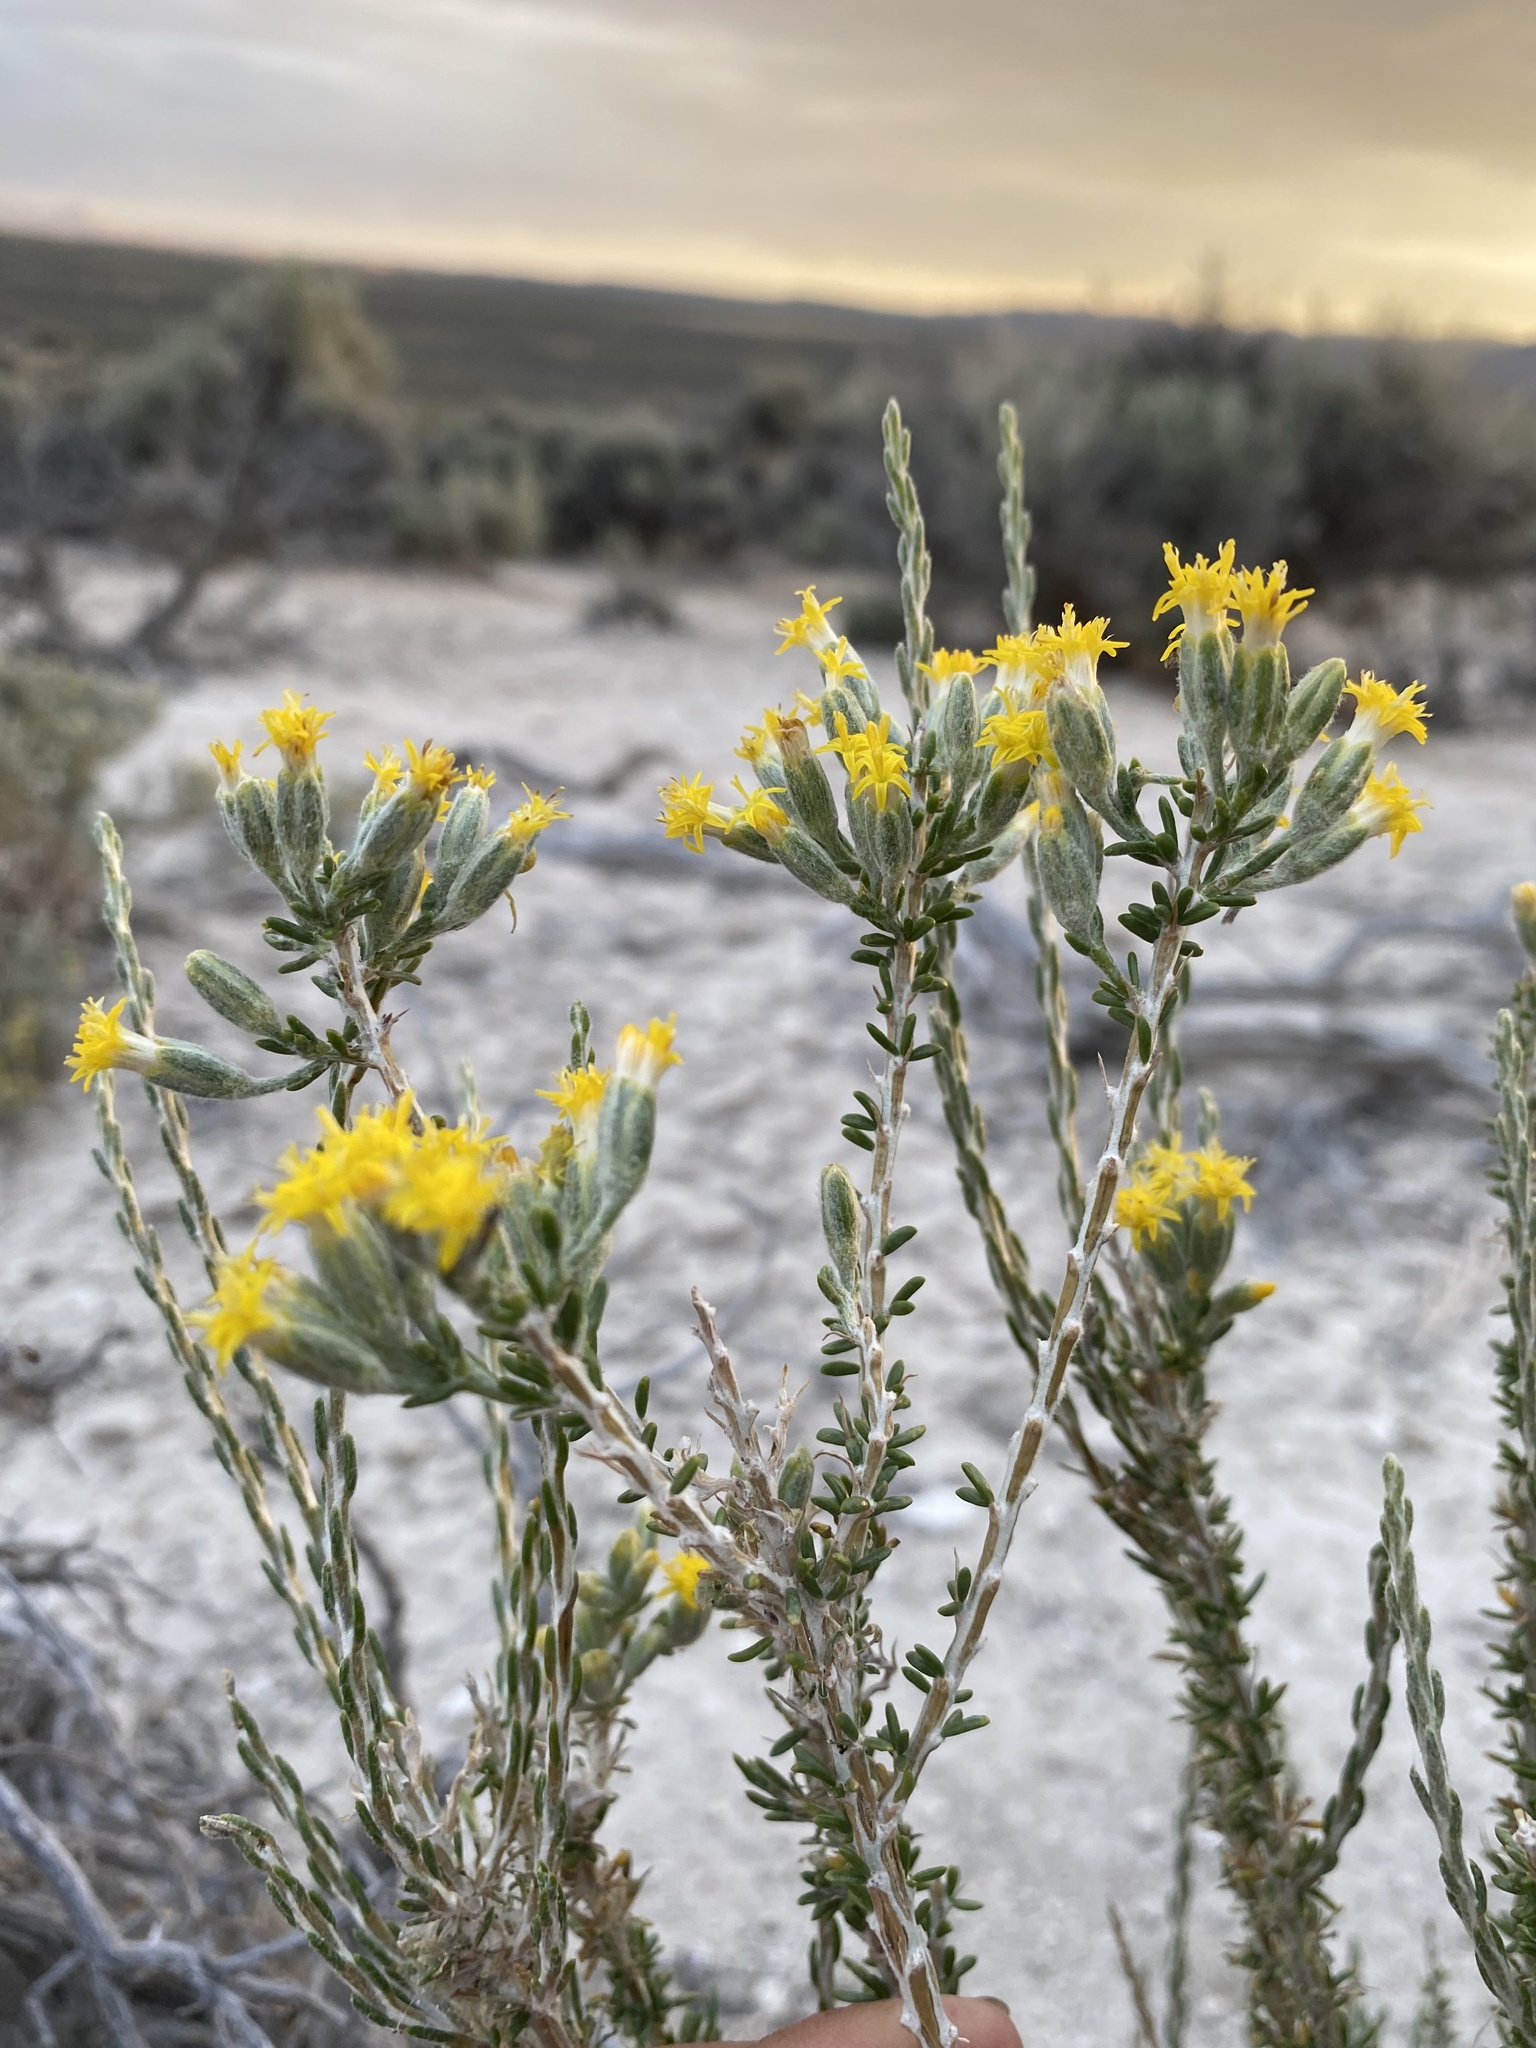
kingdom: Plantae
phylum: Tracheophyta
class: Magnoliopsida
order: Asterales
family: Asteraceae
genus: Tetradymia
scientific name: Tetradymia glabrata
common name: Smooth tetradymia
